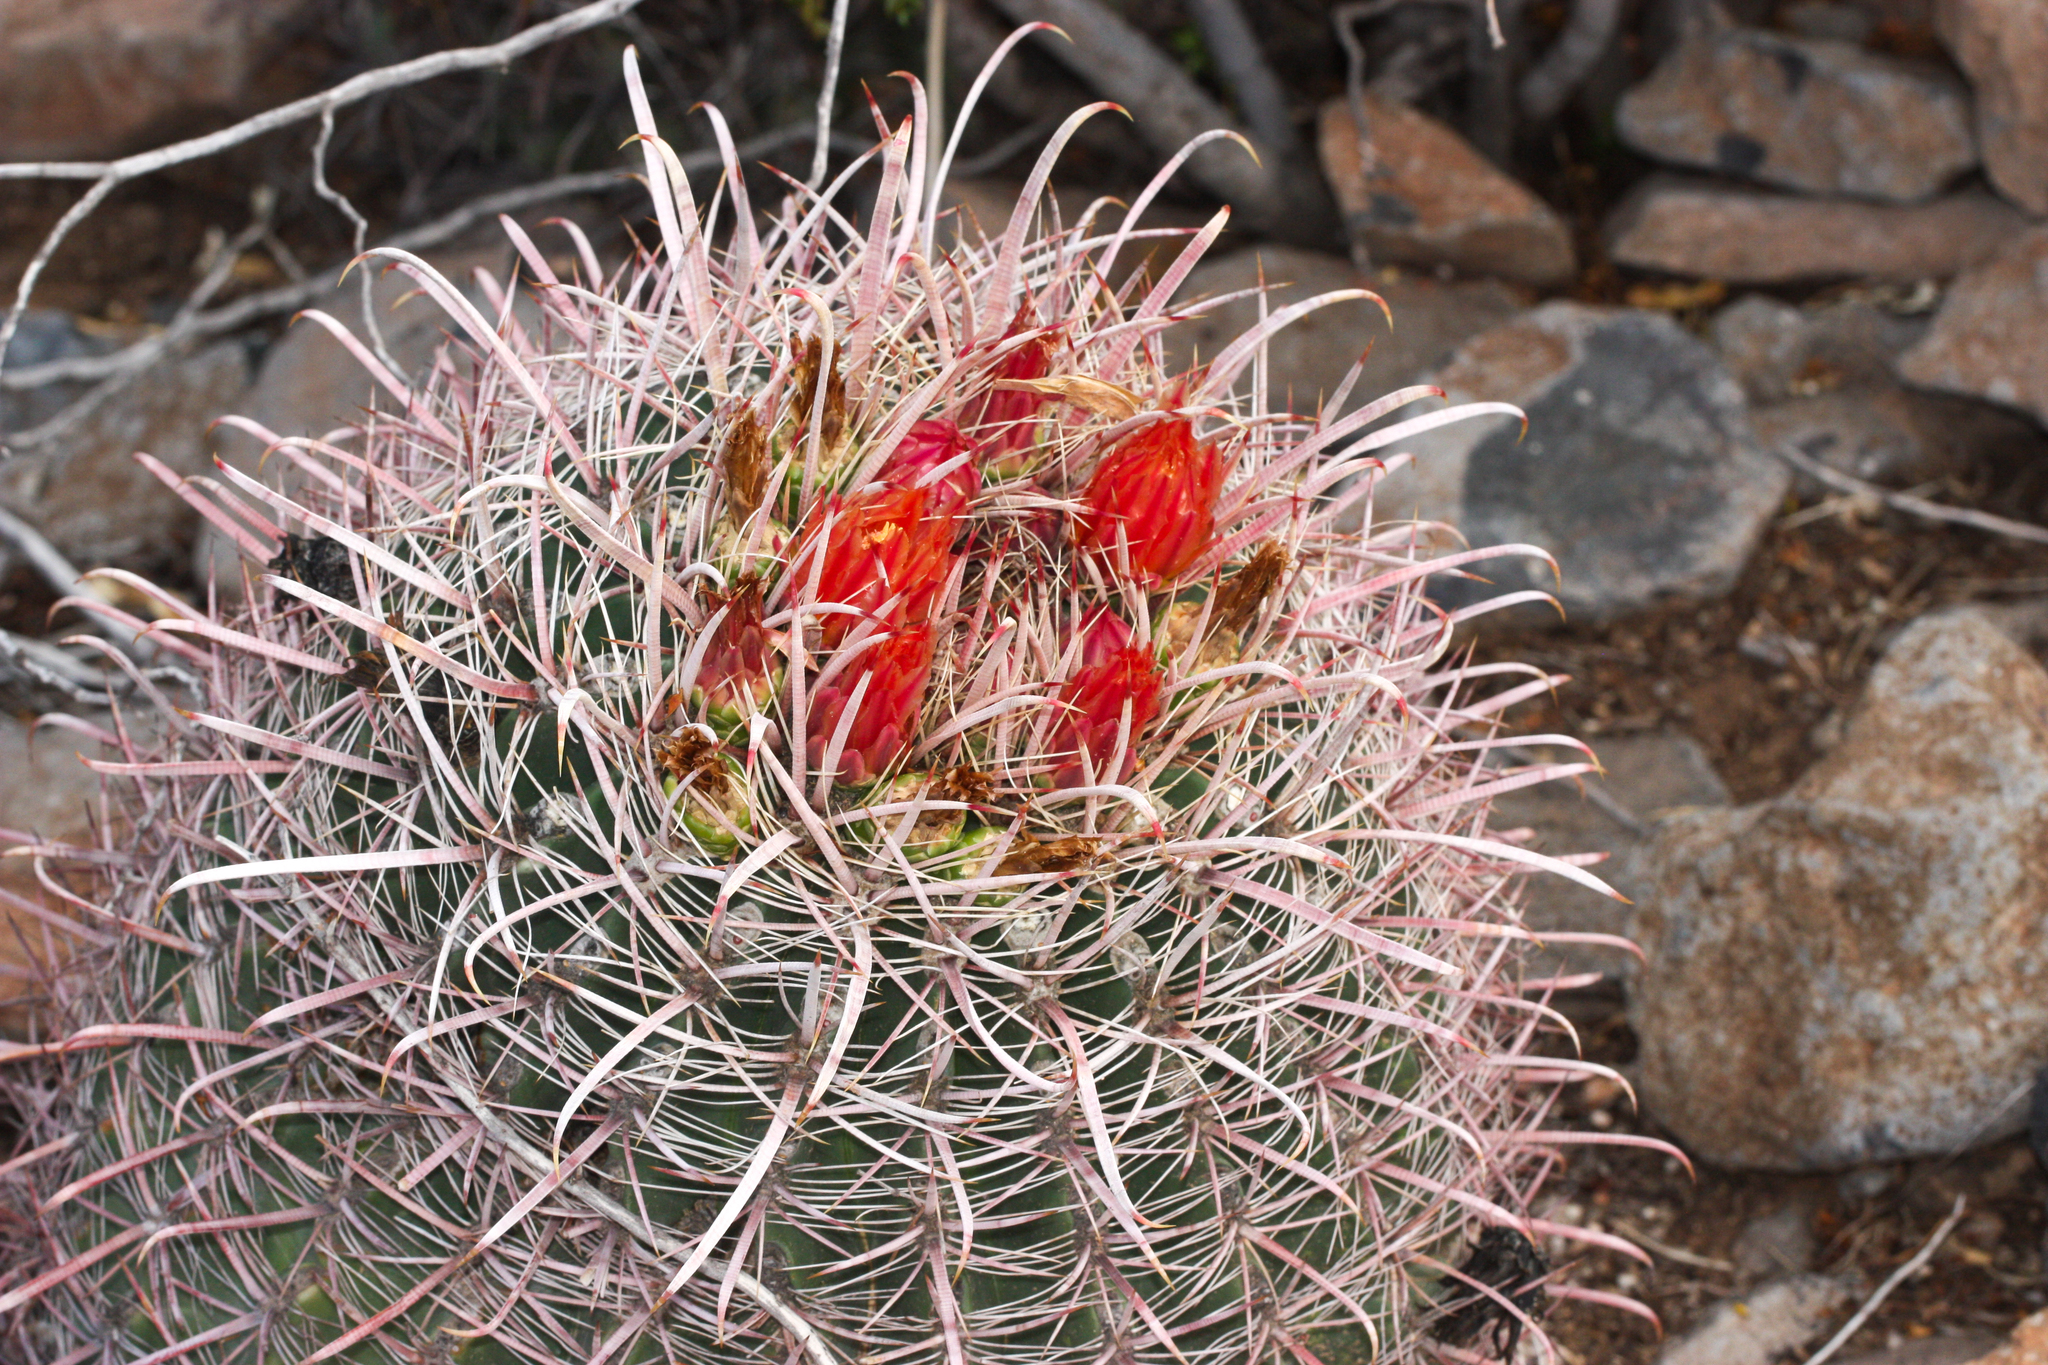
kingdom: Plantae
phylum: Tracheophyta
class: Magnoliopsida
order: Caryophyllales
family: Cactaceae
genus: Ferocactus
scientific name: Ferocactus cylindraceus
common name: California barrel cactus
